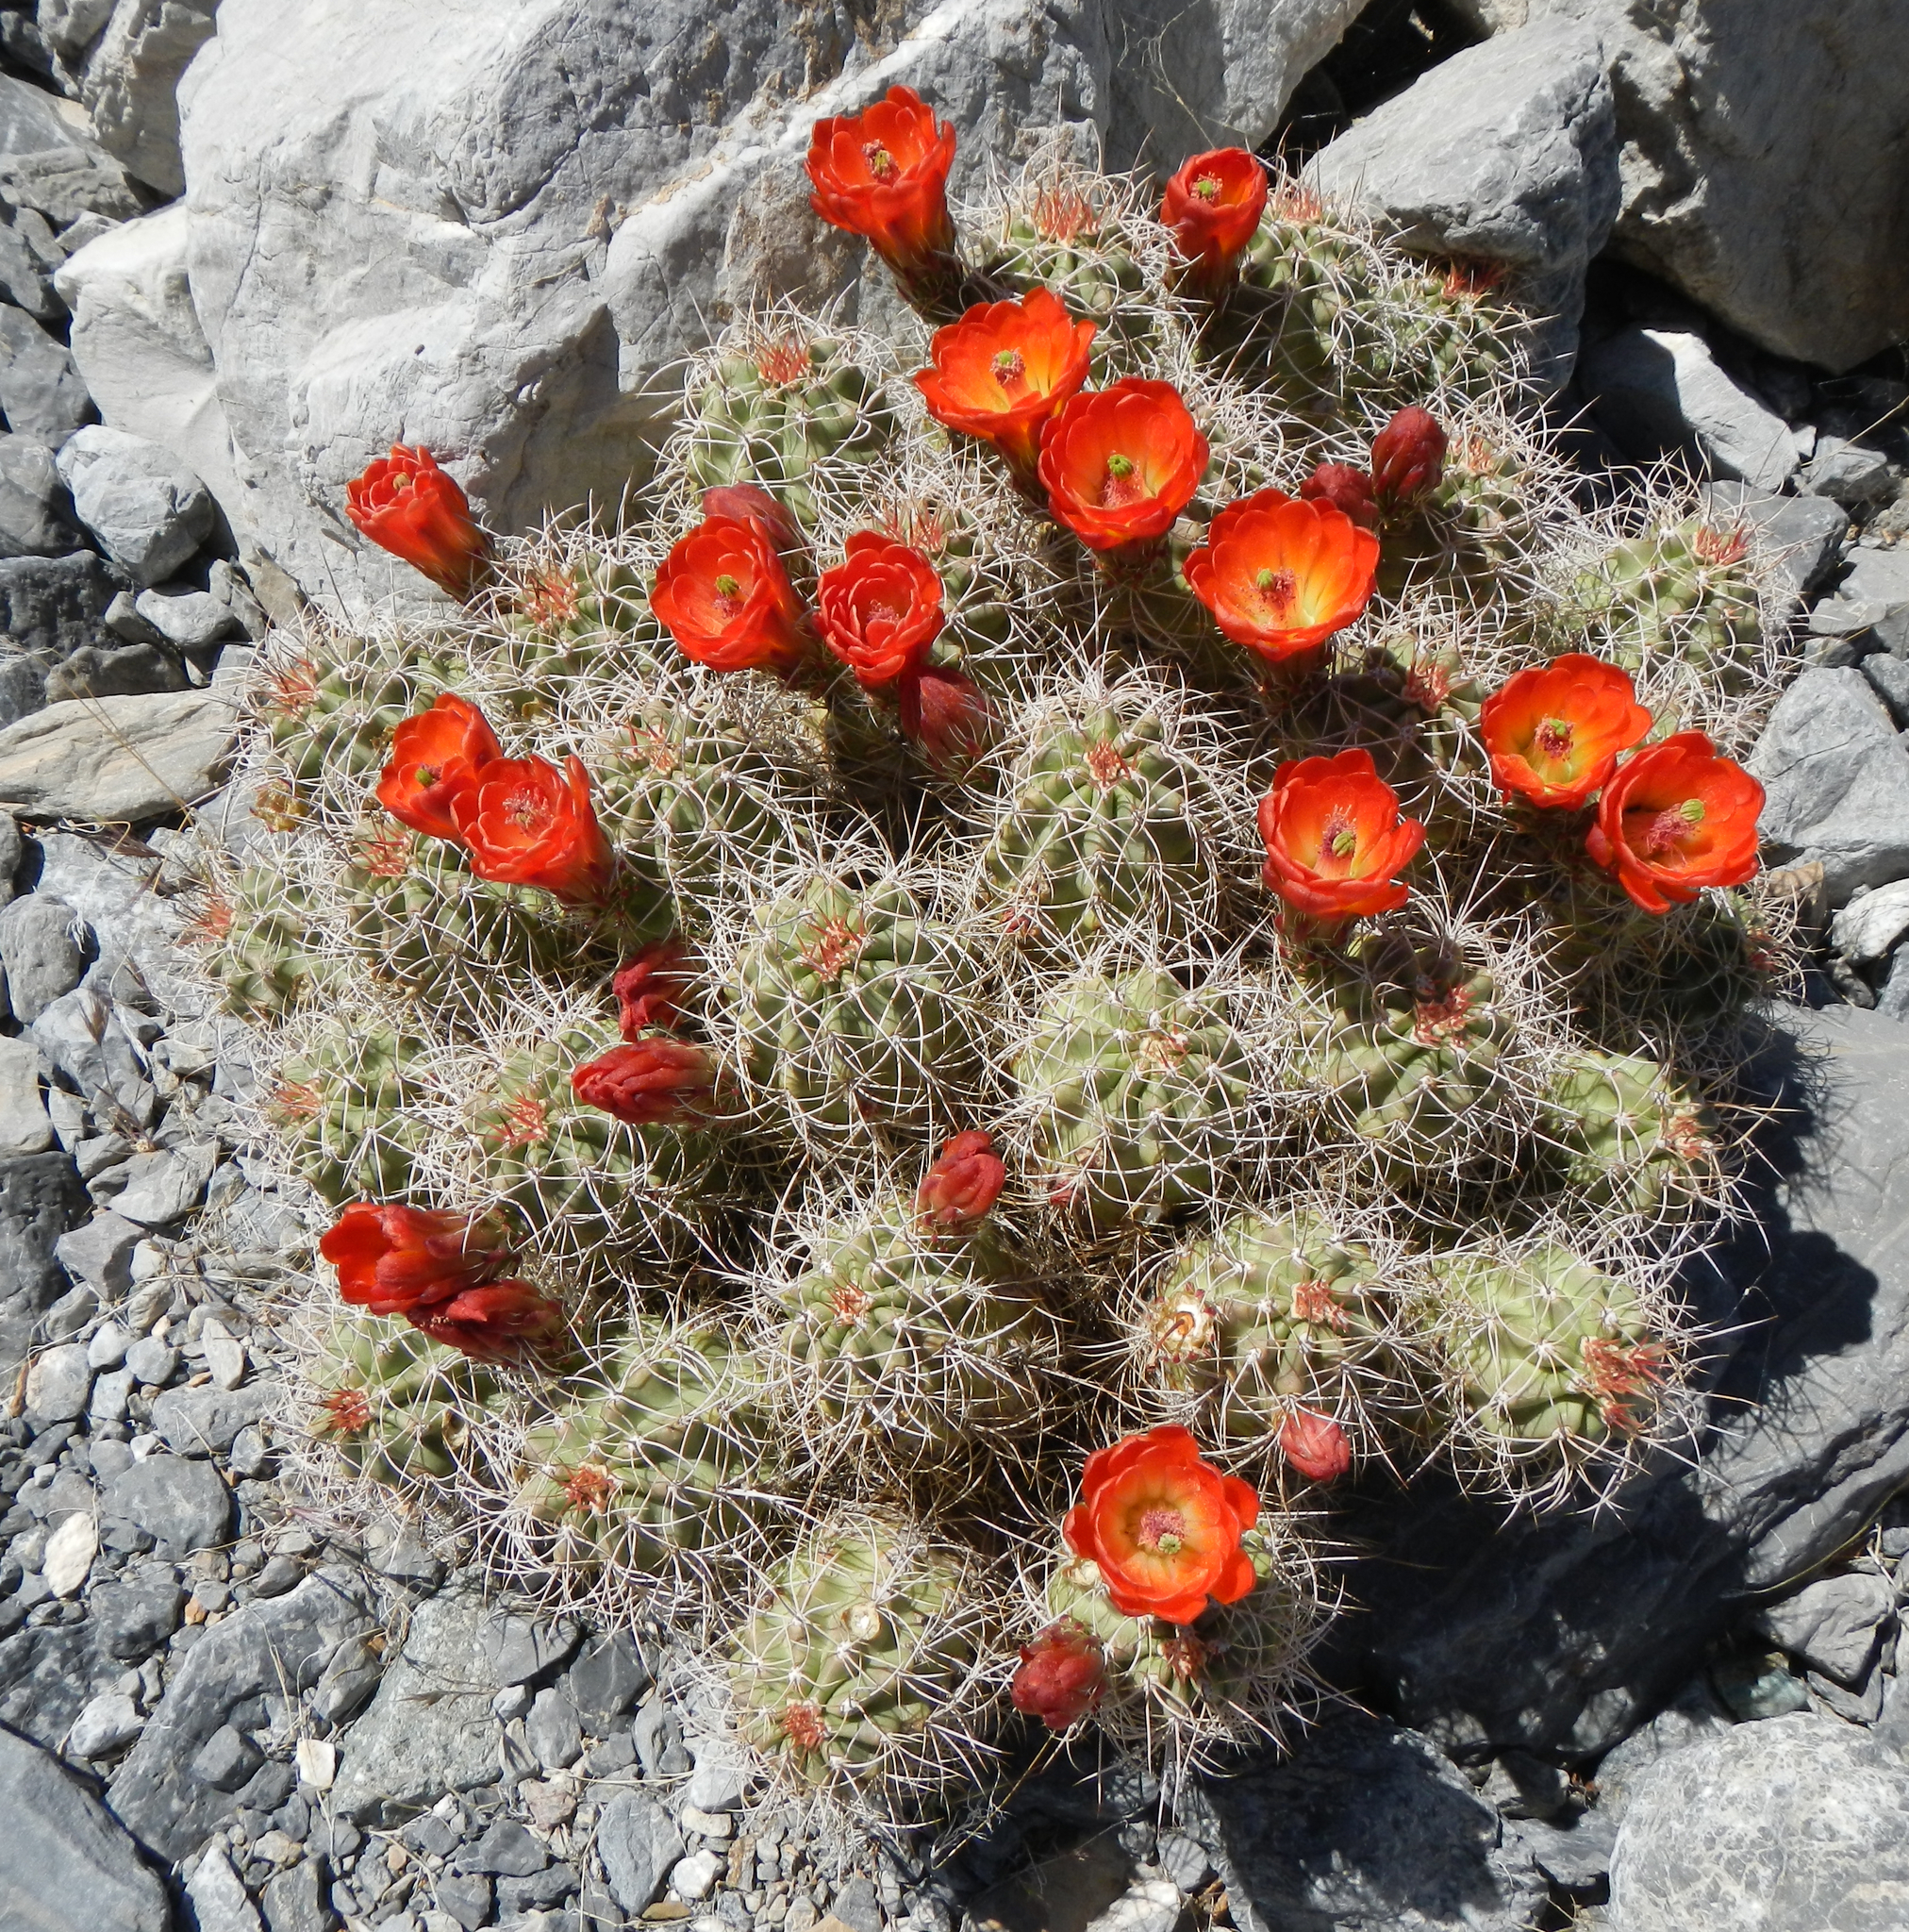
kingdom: Plantae
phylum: Tracheophyta
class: Magnoliopsida
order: Caryophyllales
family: Cactaceae
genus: Echinocereus
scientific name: Echinocereus triglochidiatus
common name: Claretcup hedgehog
